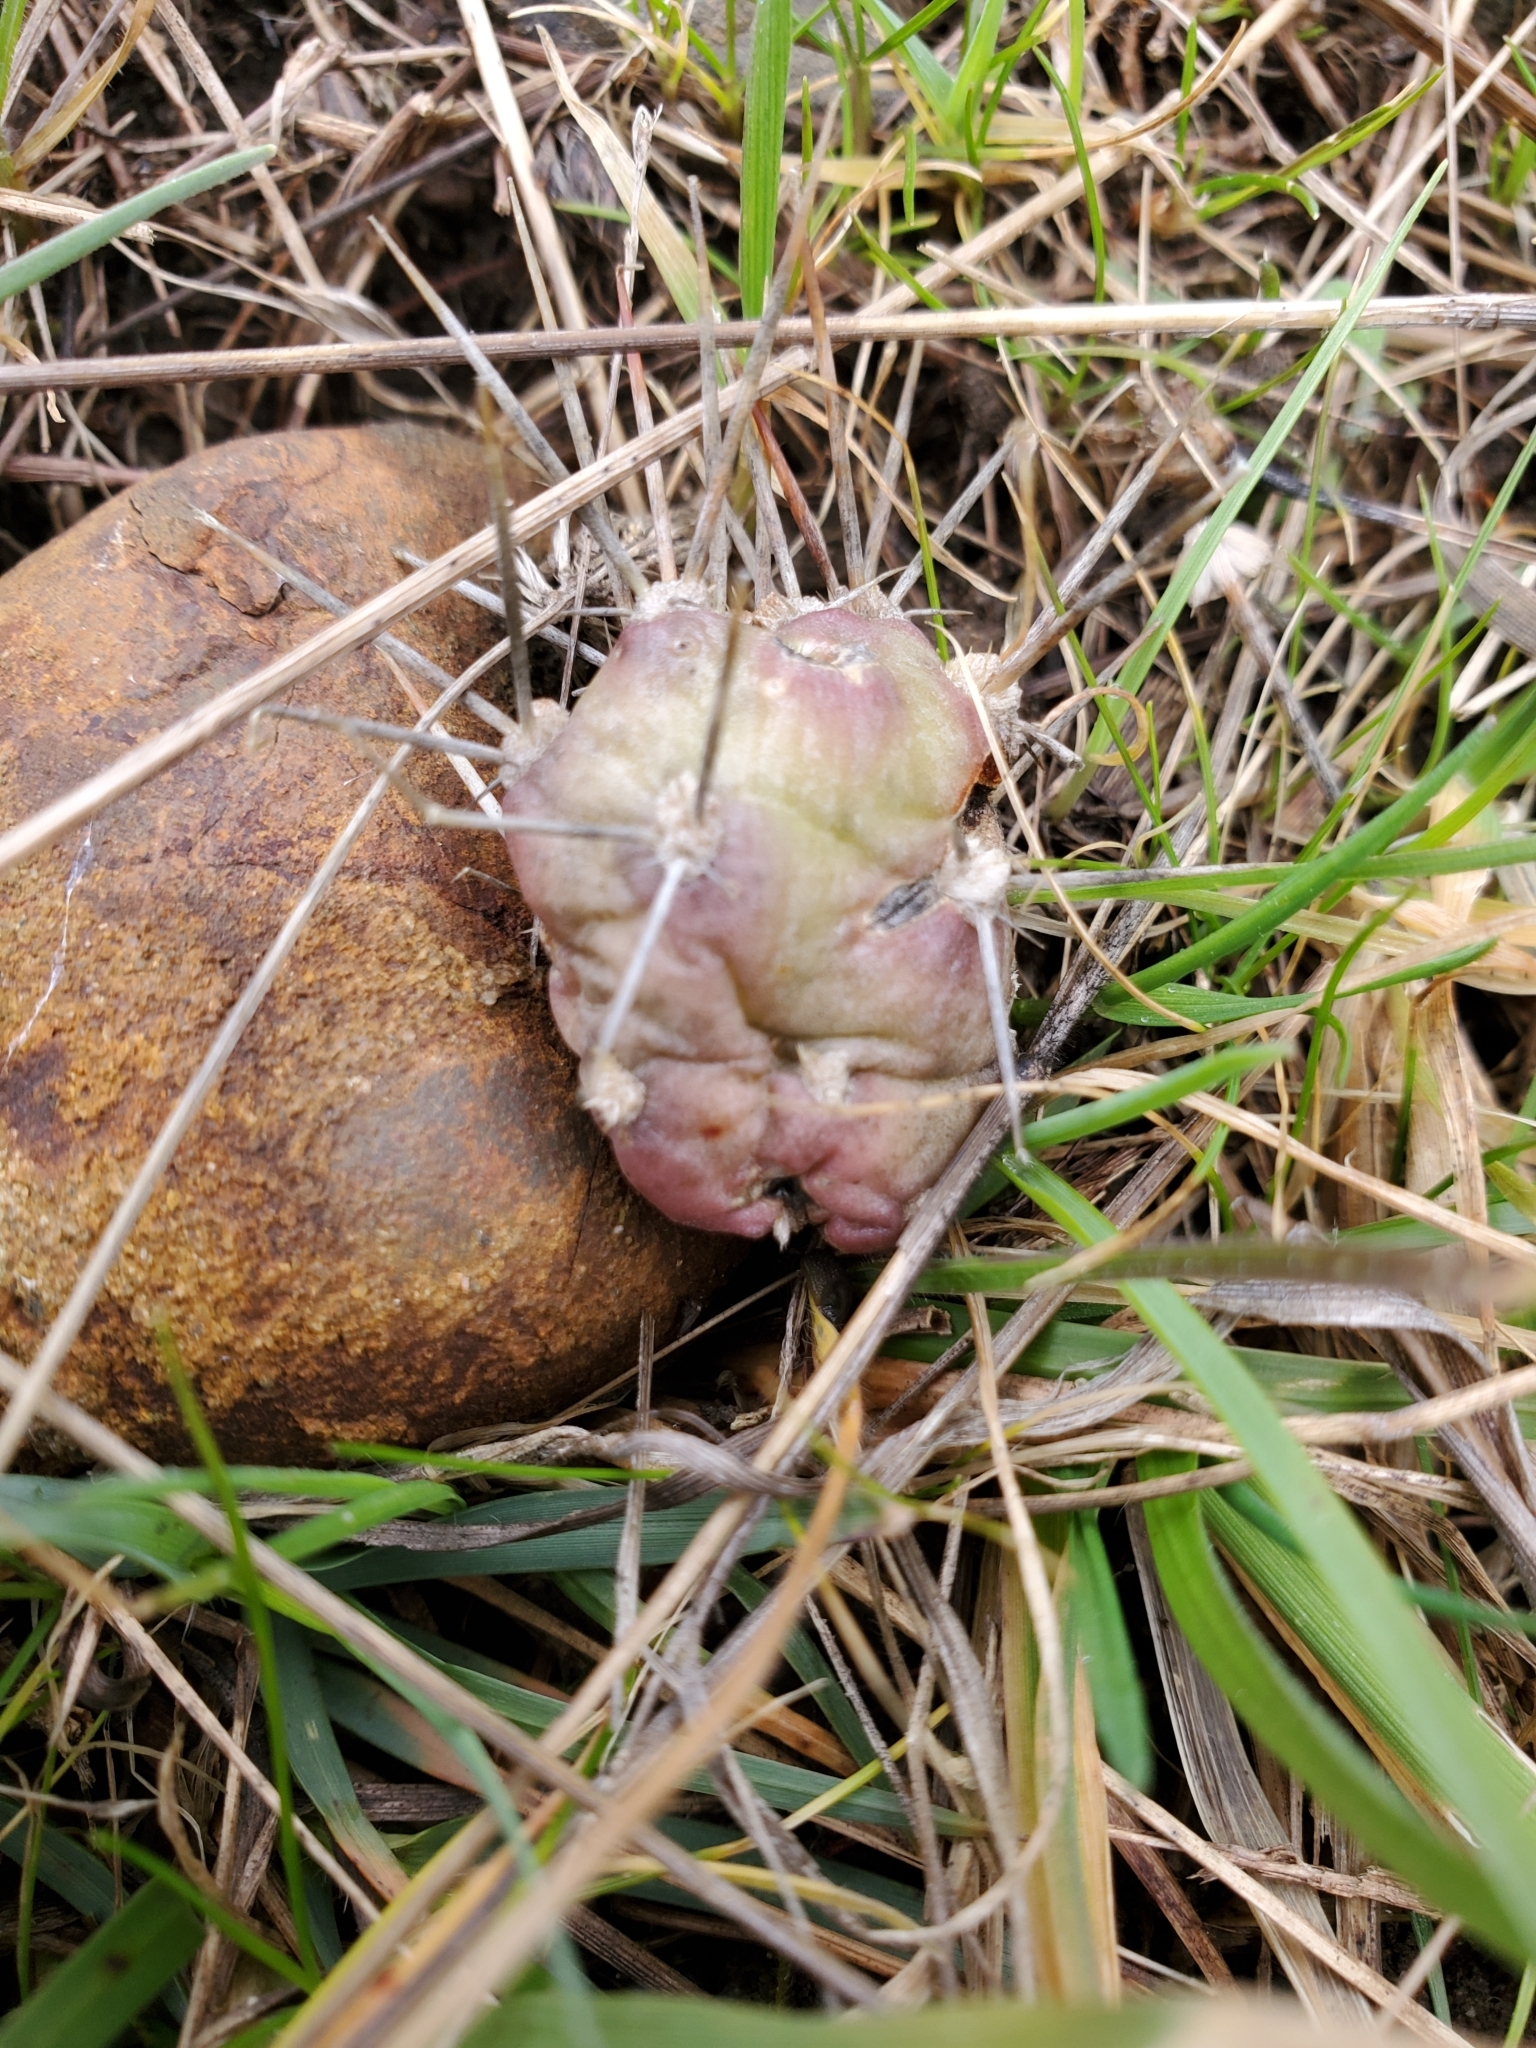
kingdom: Plantae
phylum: Tracheophyta
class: Magnoliopsida
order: Caryophyllales
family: Cactaceae
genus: Opuntia
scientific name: Opuntia fragilis
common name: Brittle cactus
